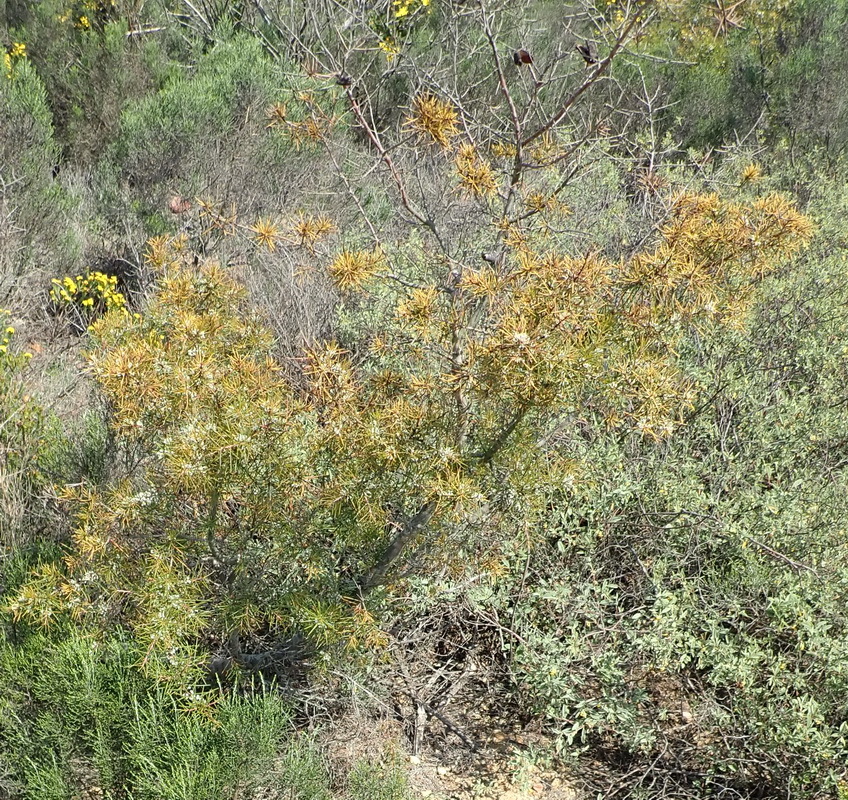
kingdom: Plantae
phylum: Tracheophyta
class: Magnoliopsida
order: Proteales
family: Proteaceae
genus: Hakea
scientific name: Hakea sericea
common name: Needle bush
